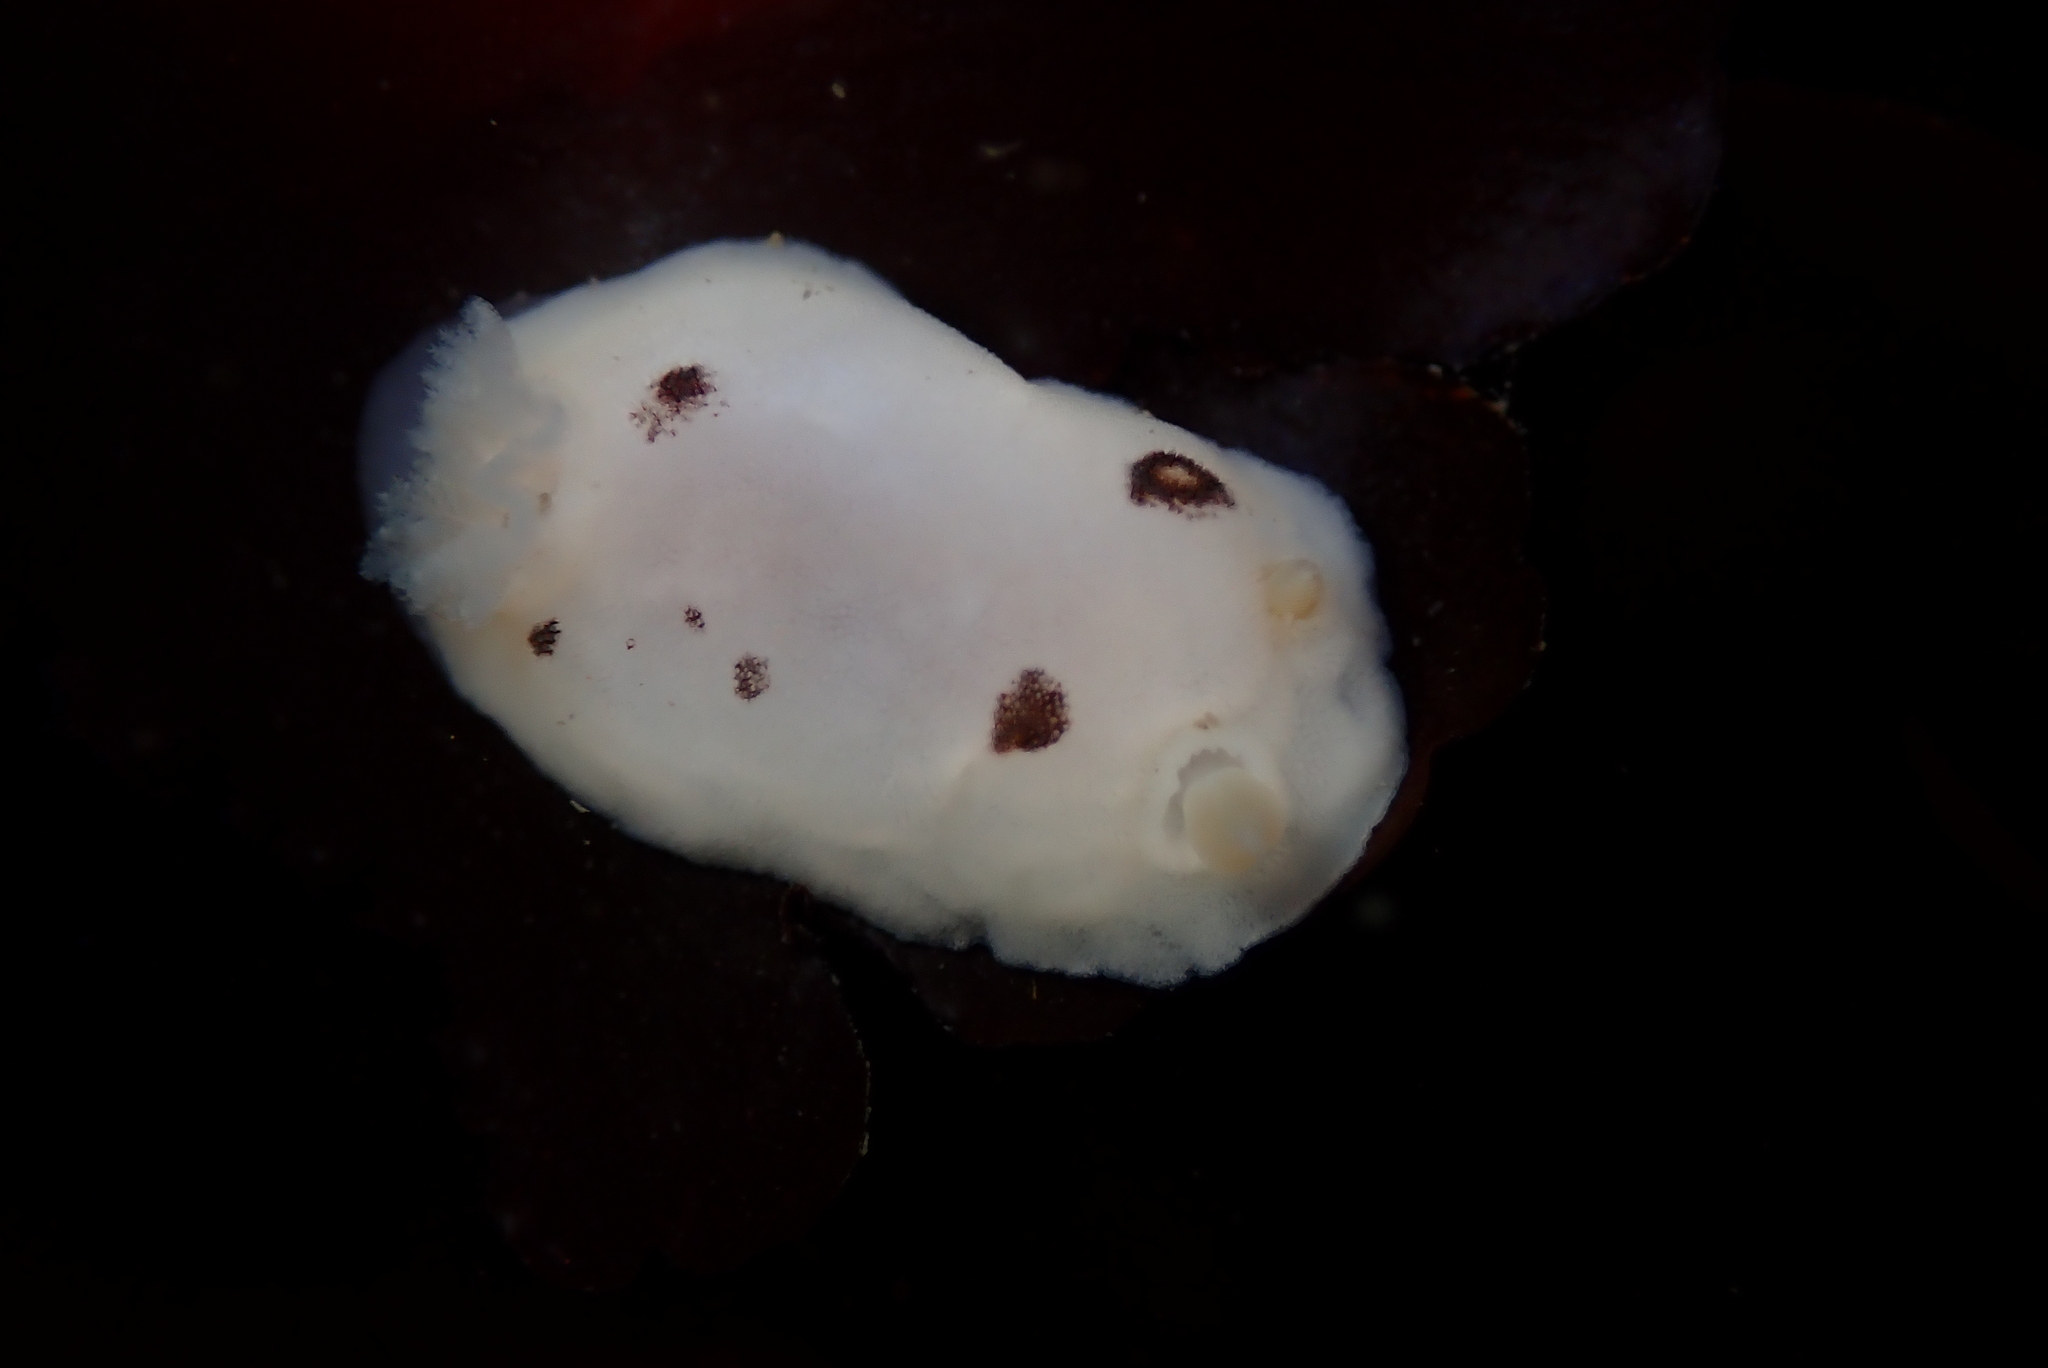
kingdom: Animalia
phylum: Mollusca
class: Gastropoda
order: Nudibranchia
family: Discodorididae
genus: Diaulula
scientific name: Diaulula sandiegensis
